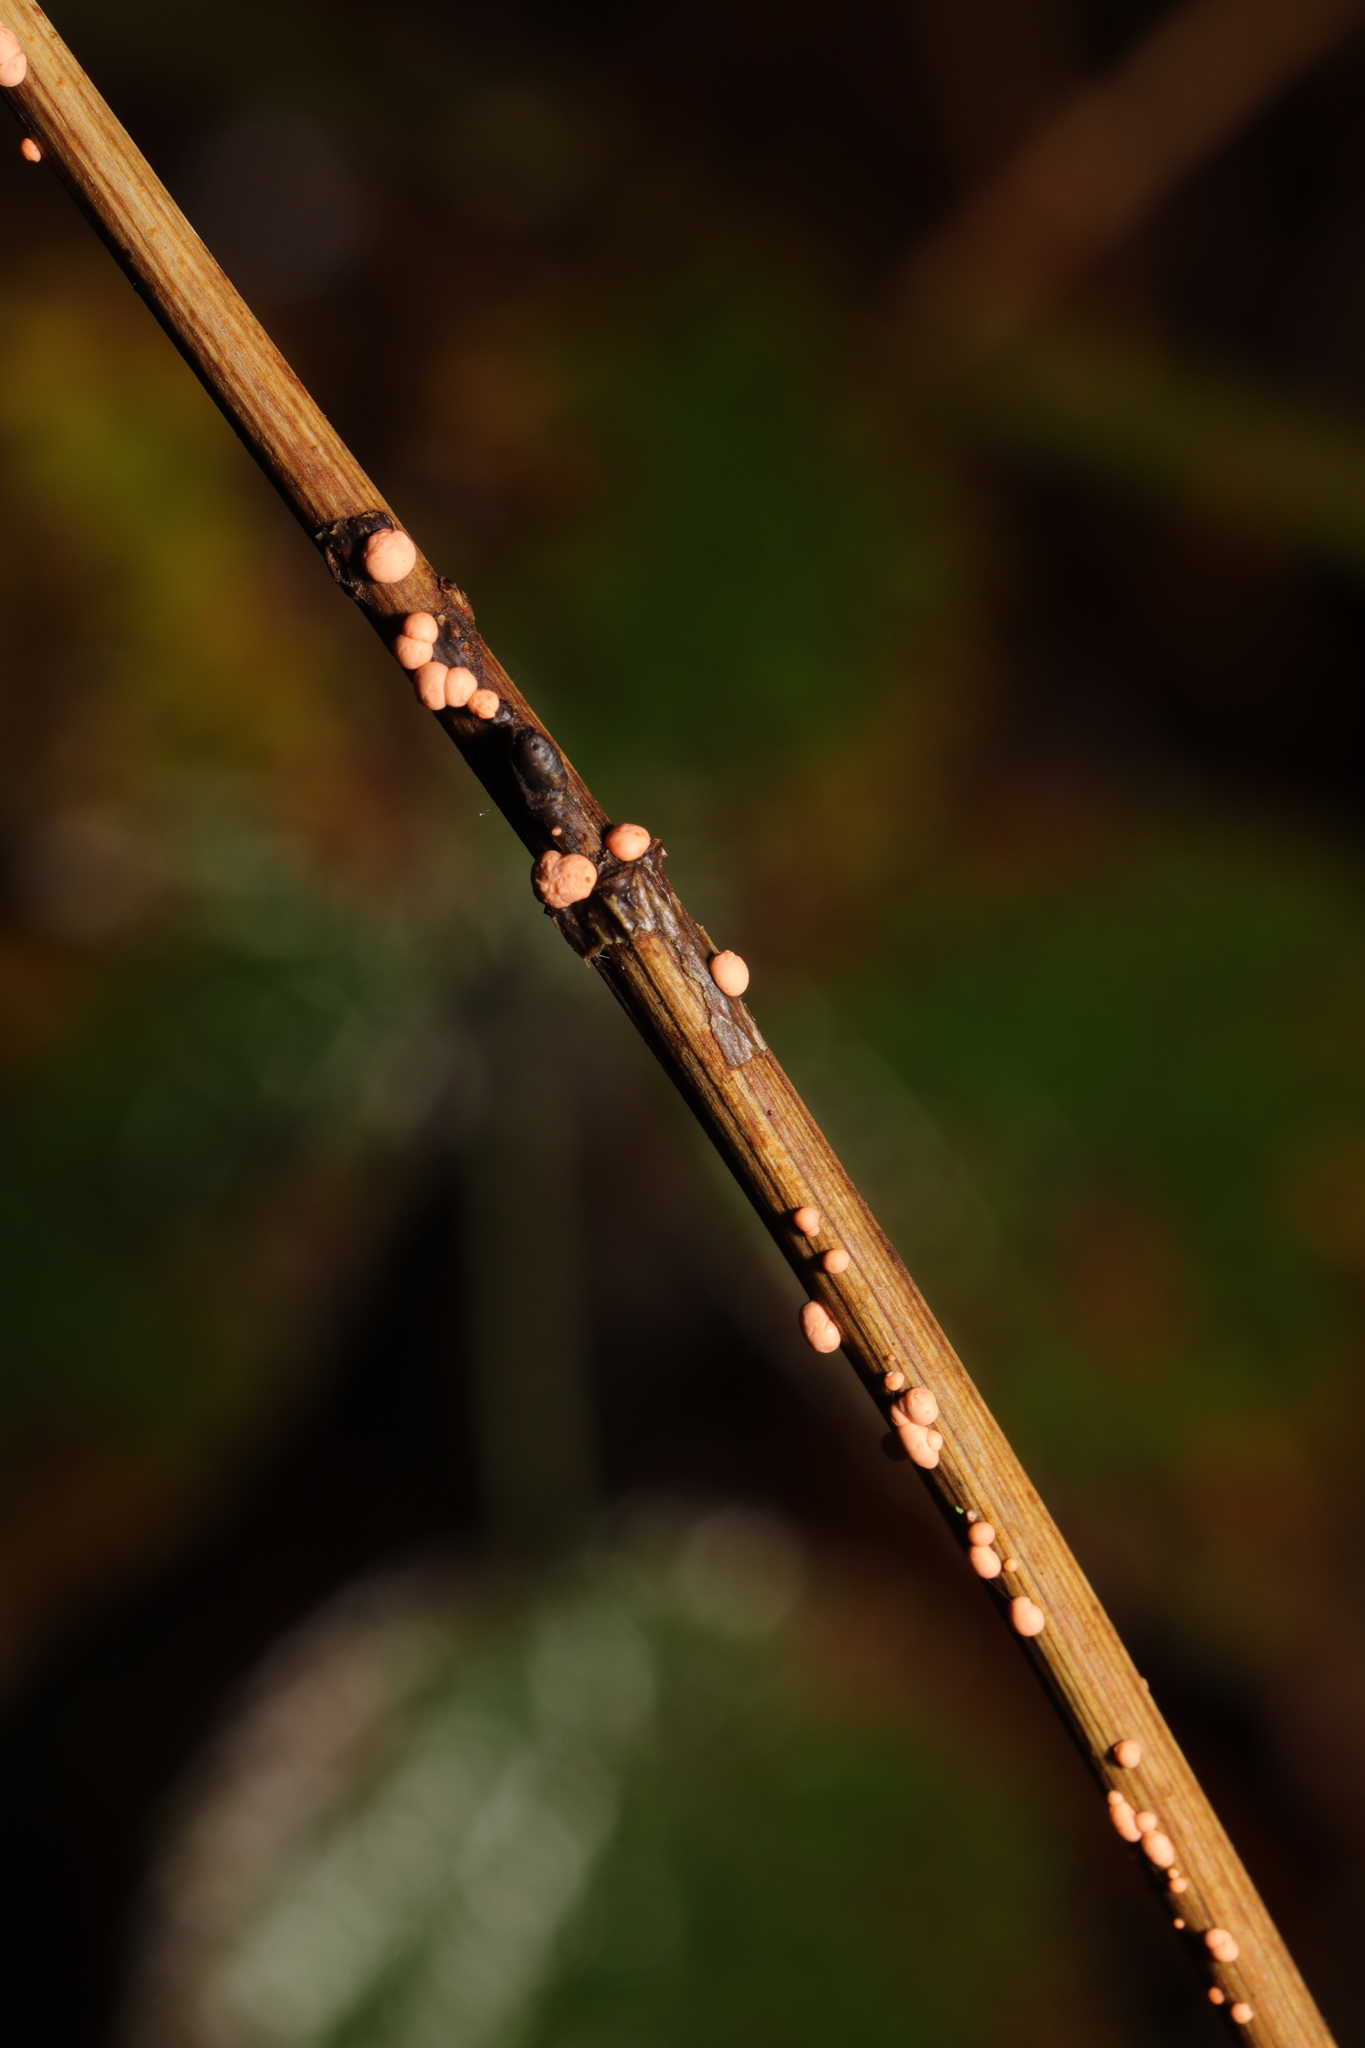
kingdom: Fungi
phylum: Ascomycota
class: Sordariomycetes
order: Hypocreales
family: Nectriaceae
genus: Nectria
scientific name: Nectria cinnabarina
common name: Coral spot
